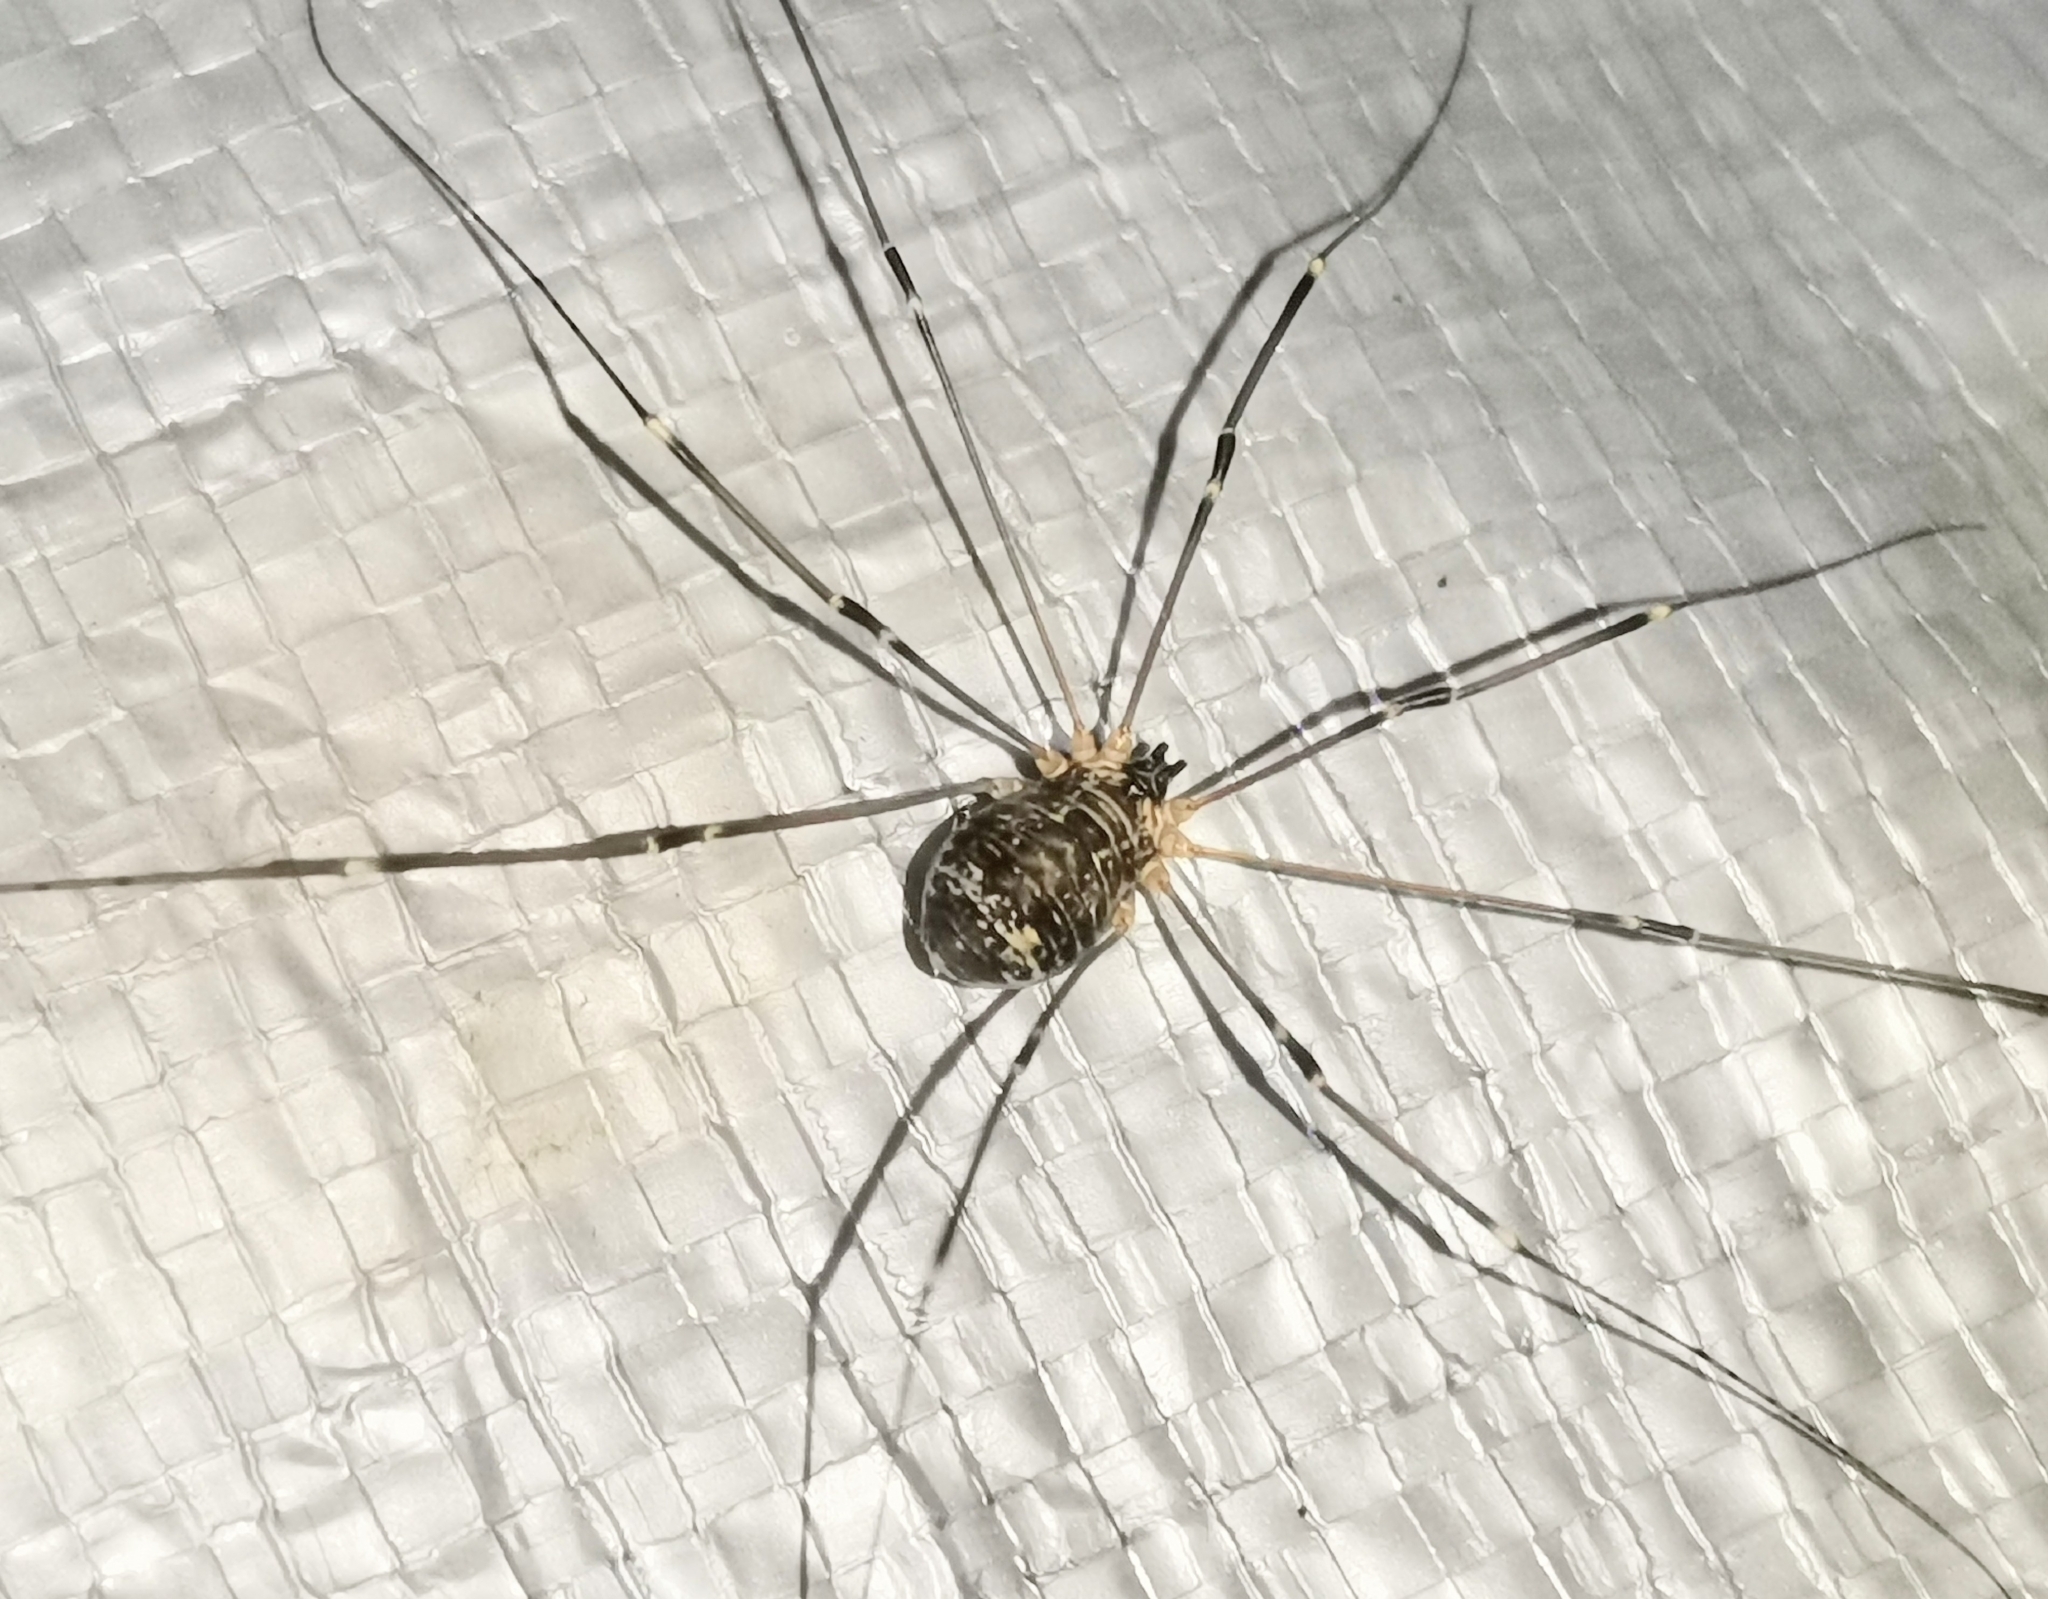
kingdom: Animalia
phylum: Arthropoda
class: Arachnida
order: Opiliones
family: Sclerosomatidae
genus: Leiobunum
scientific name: Leiobunum gracile
